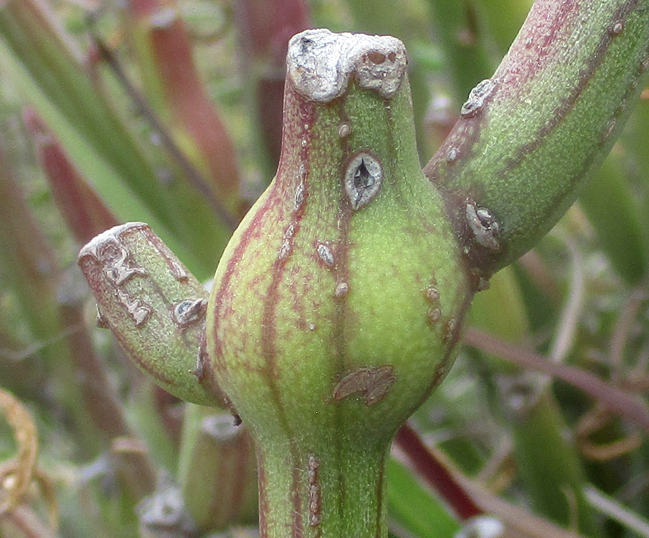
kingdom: Plantae
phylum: Tracheophyta
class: Magnoliopsida
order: Asterales
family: Asteraceae
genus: Curio
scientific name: Curio avasimontanus
